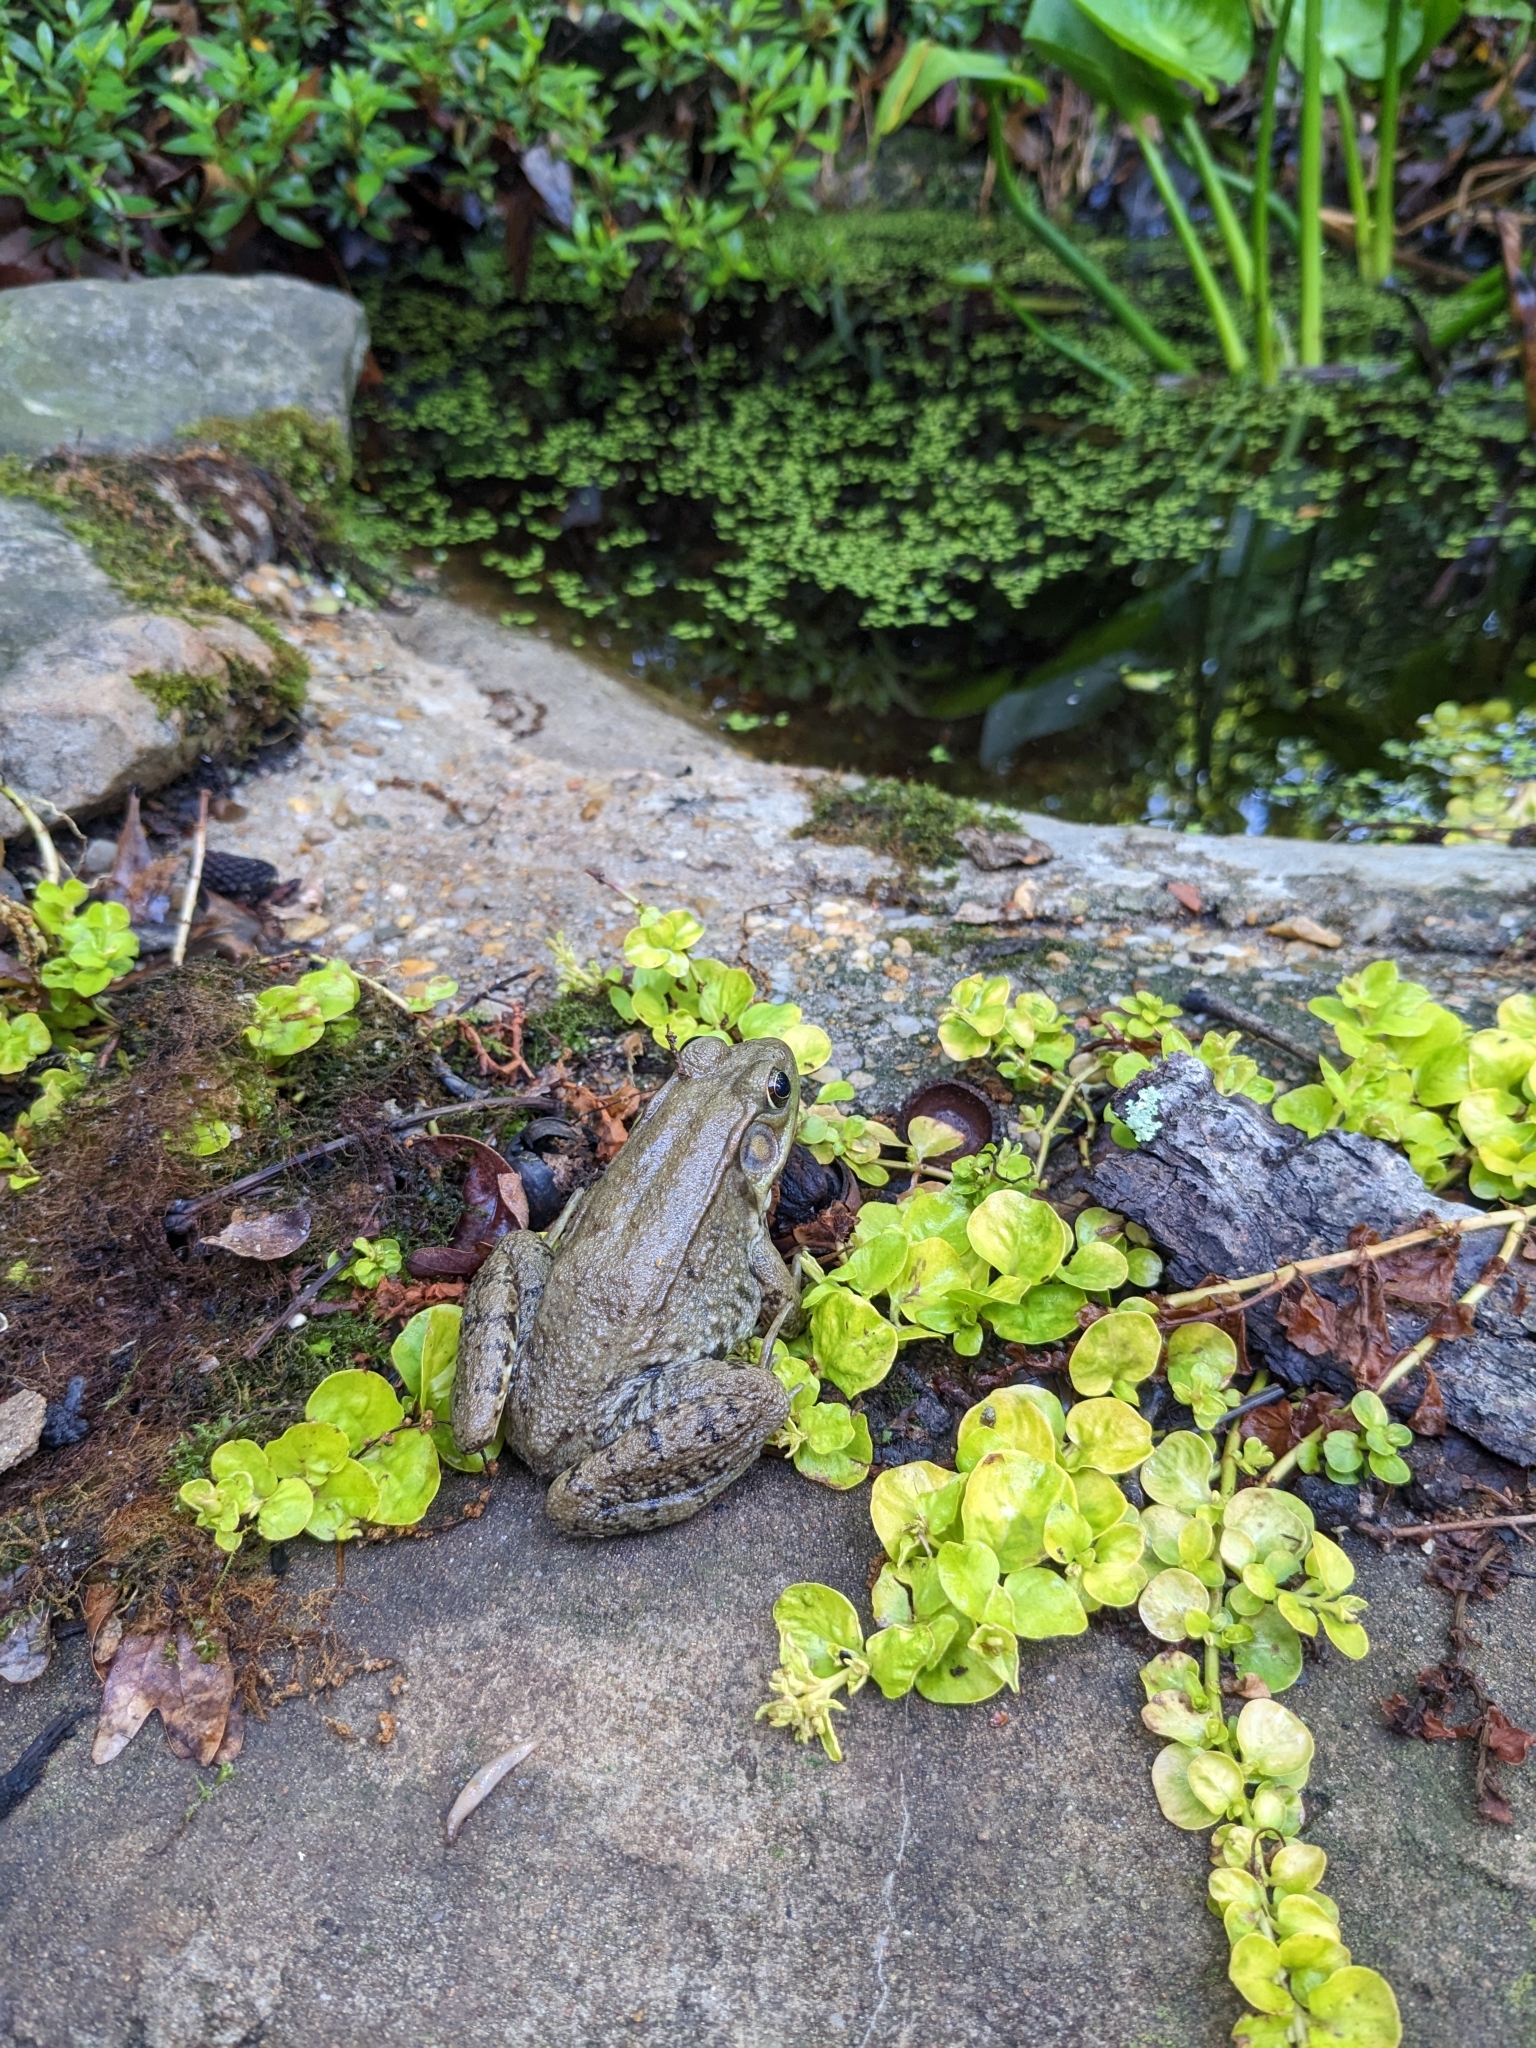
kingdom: Animalia
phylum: Chordata
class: Amphibia
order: Anura
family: Ranidae
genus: Lithobates
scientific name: Lithobates clamitans
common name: Green frog
